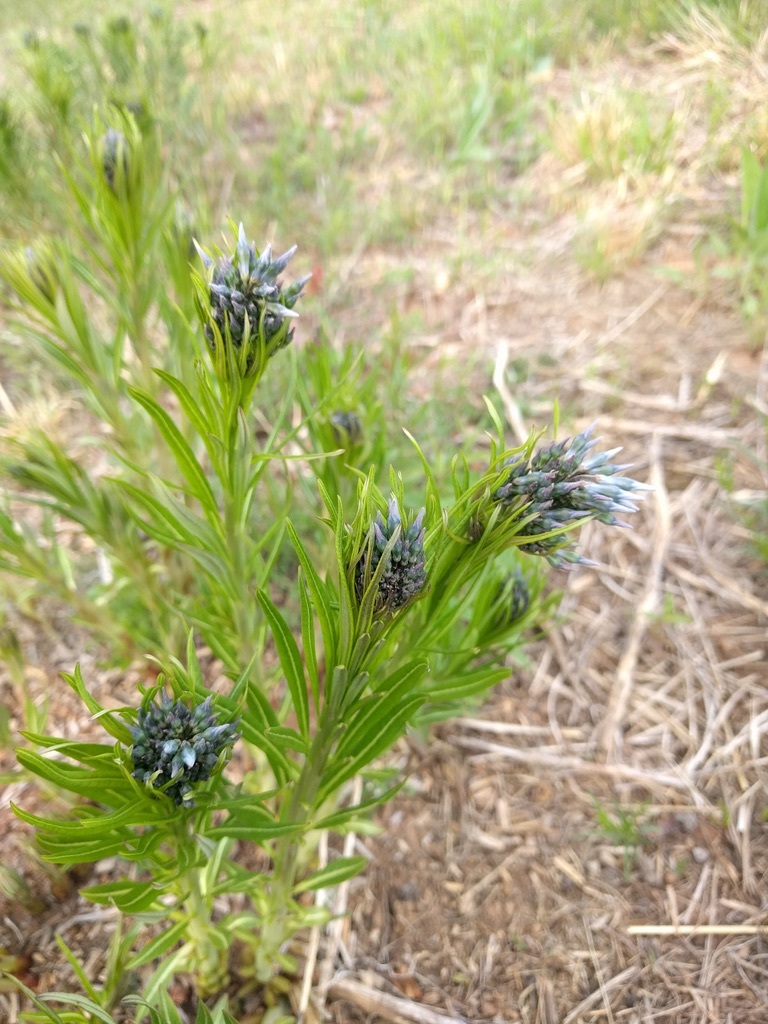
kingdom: Plantae
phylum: Tracheophyta
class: Magnoliopsida
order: Gentianales
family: Apocynaceae
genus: Amsonia
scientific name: Amsonia ciliata
